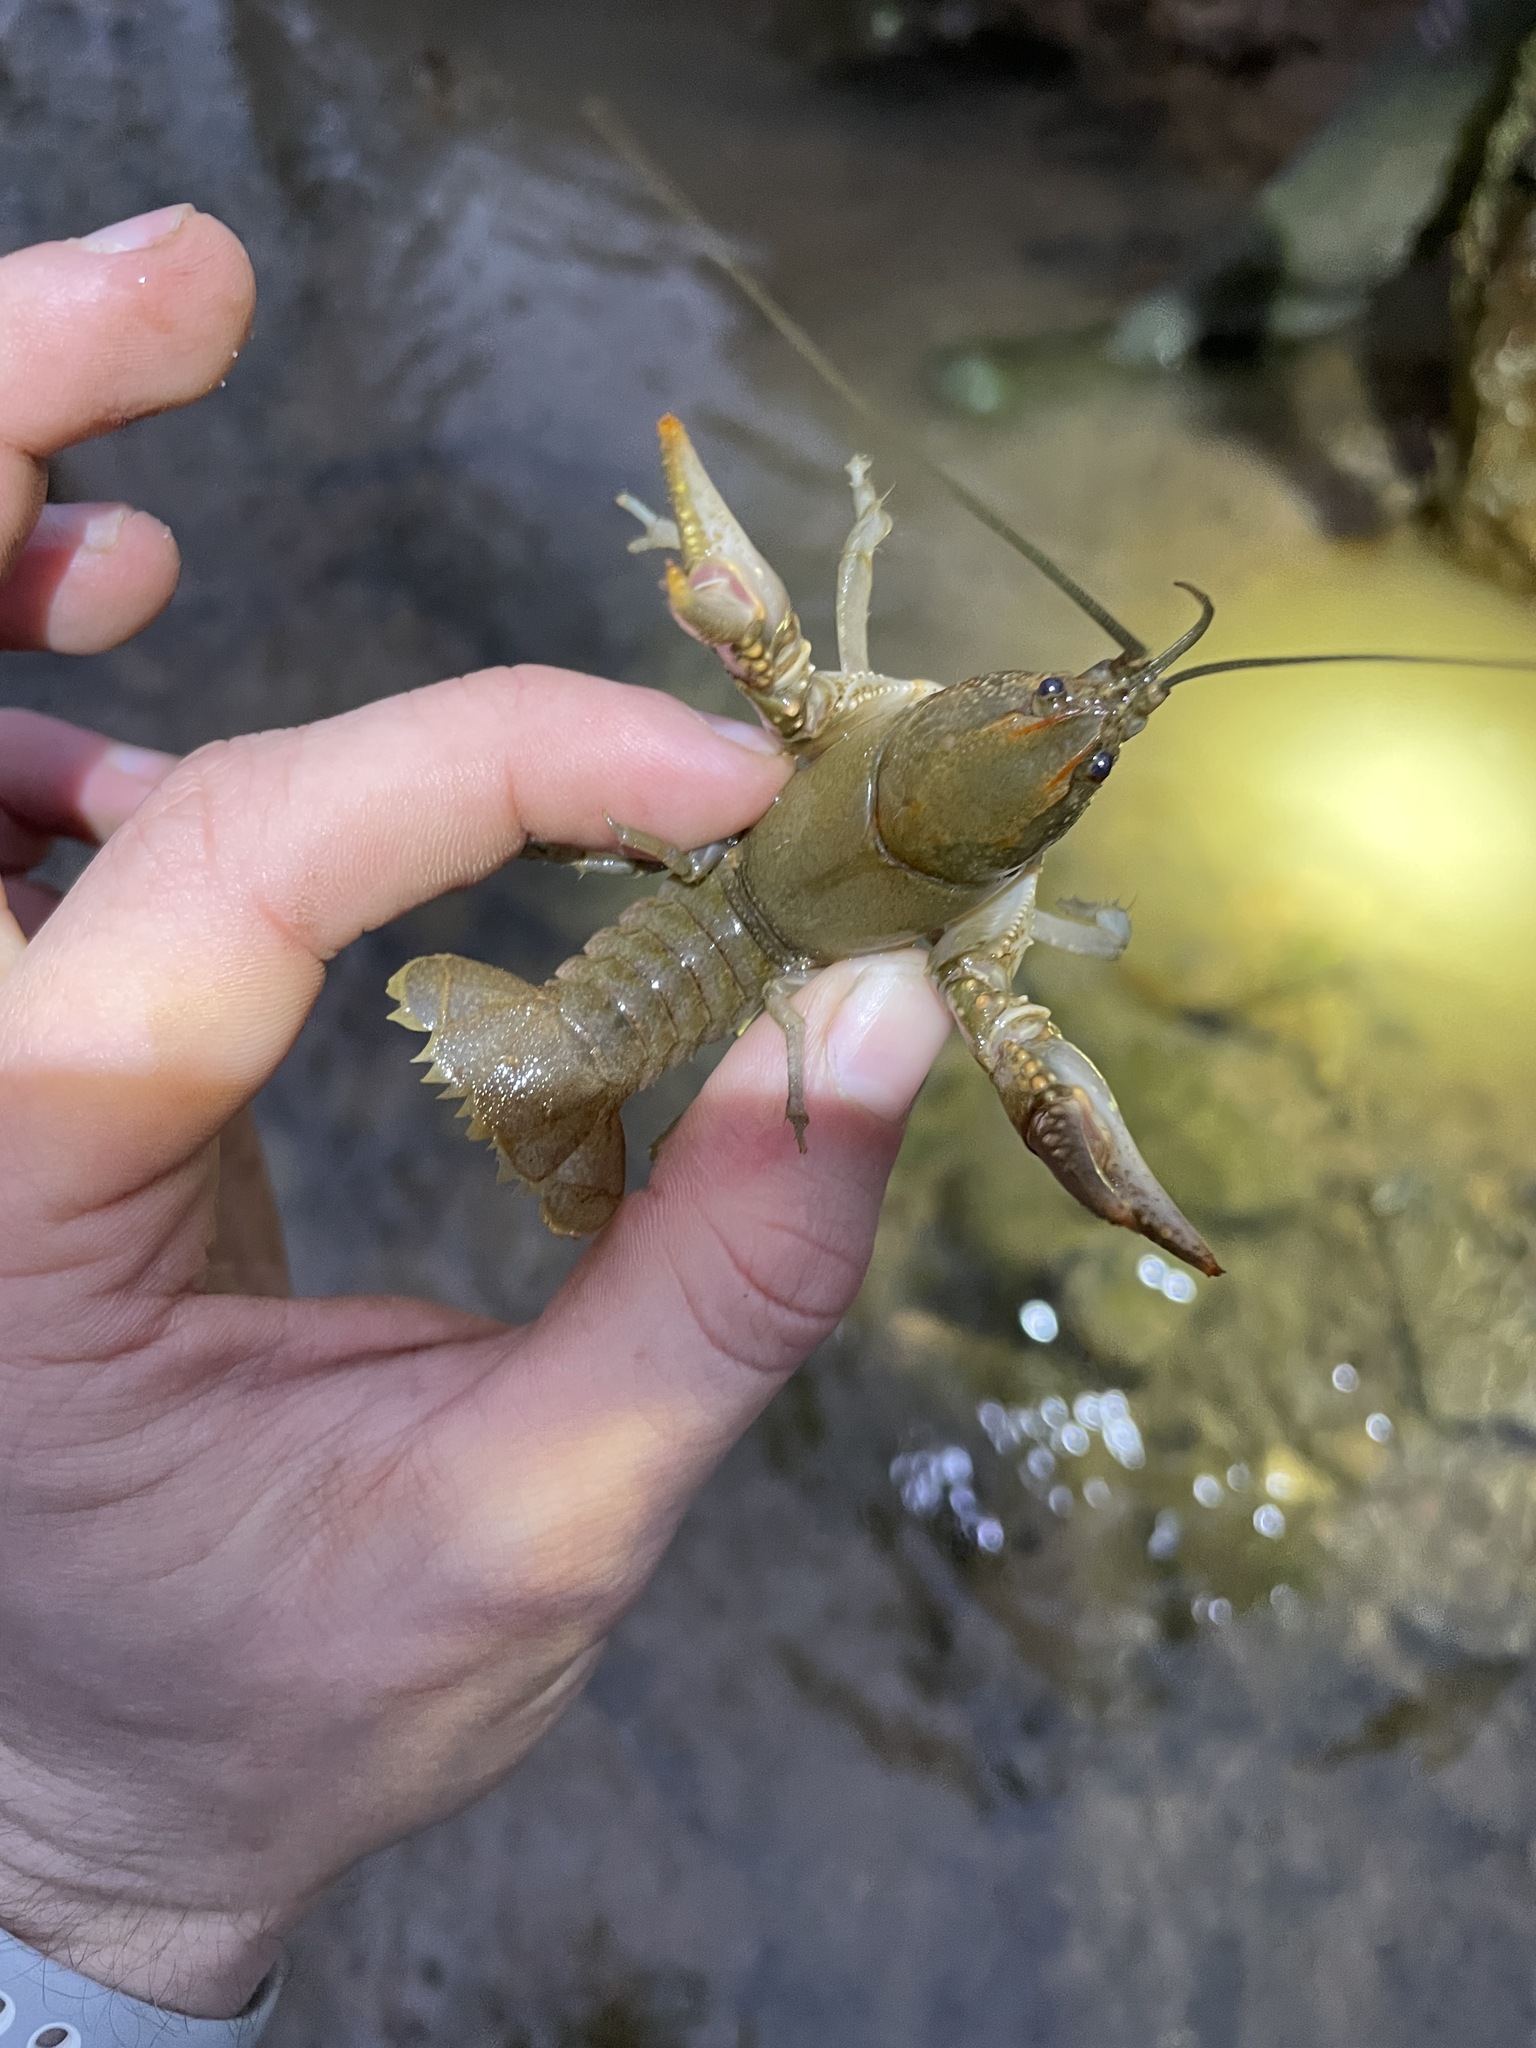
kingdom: Animalia
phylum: Arthropoda
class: Malacostraca
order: Decapoda
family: Cambaridae
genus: Cambarus
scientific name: Cambarus striatus
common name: Ambiguous crayfish
